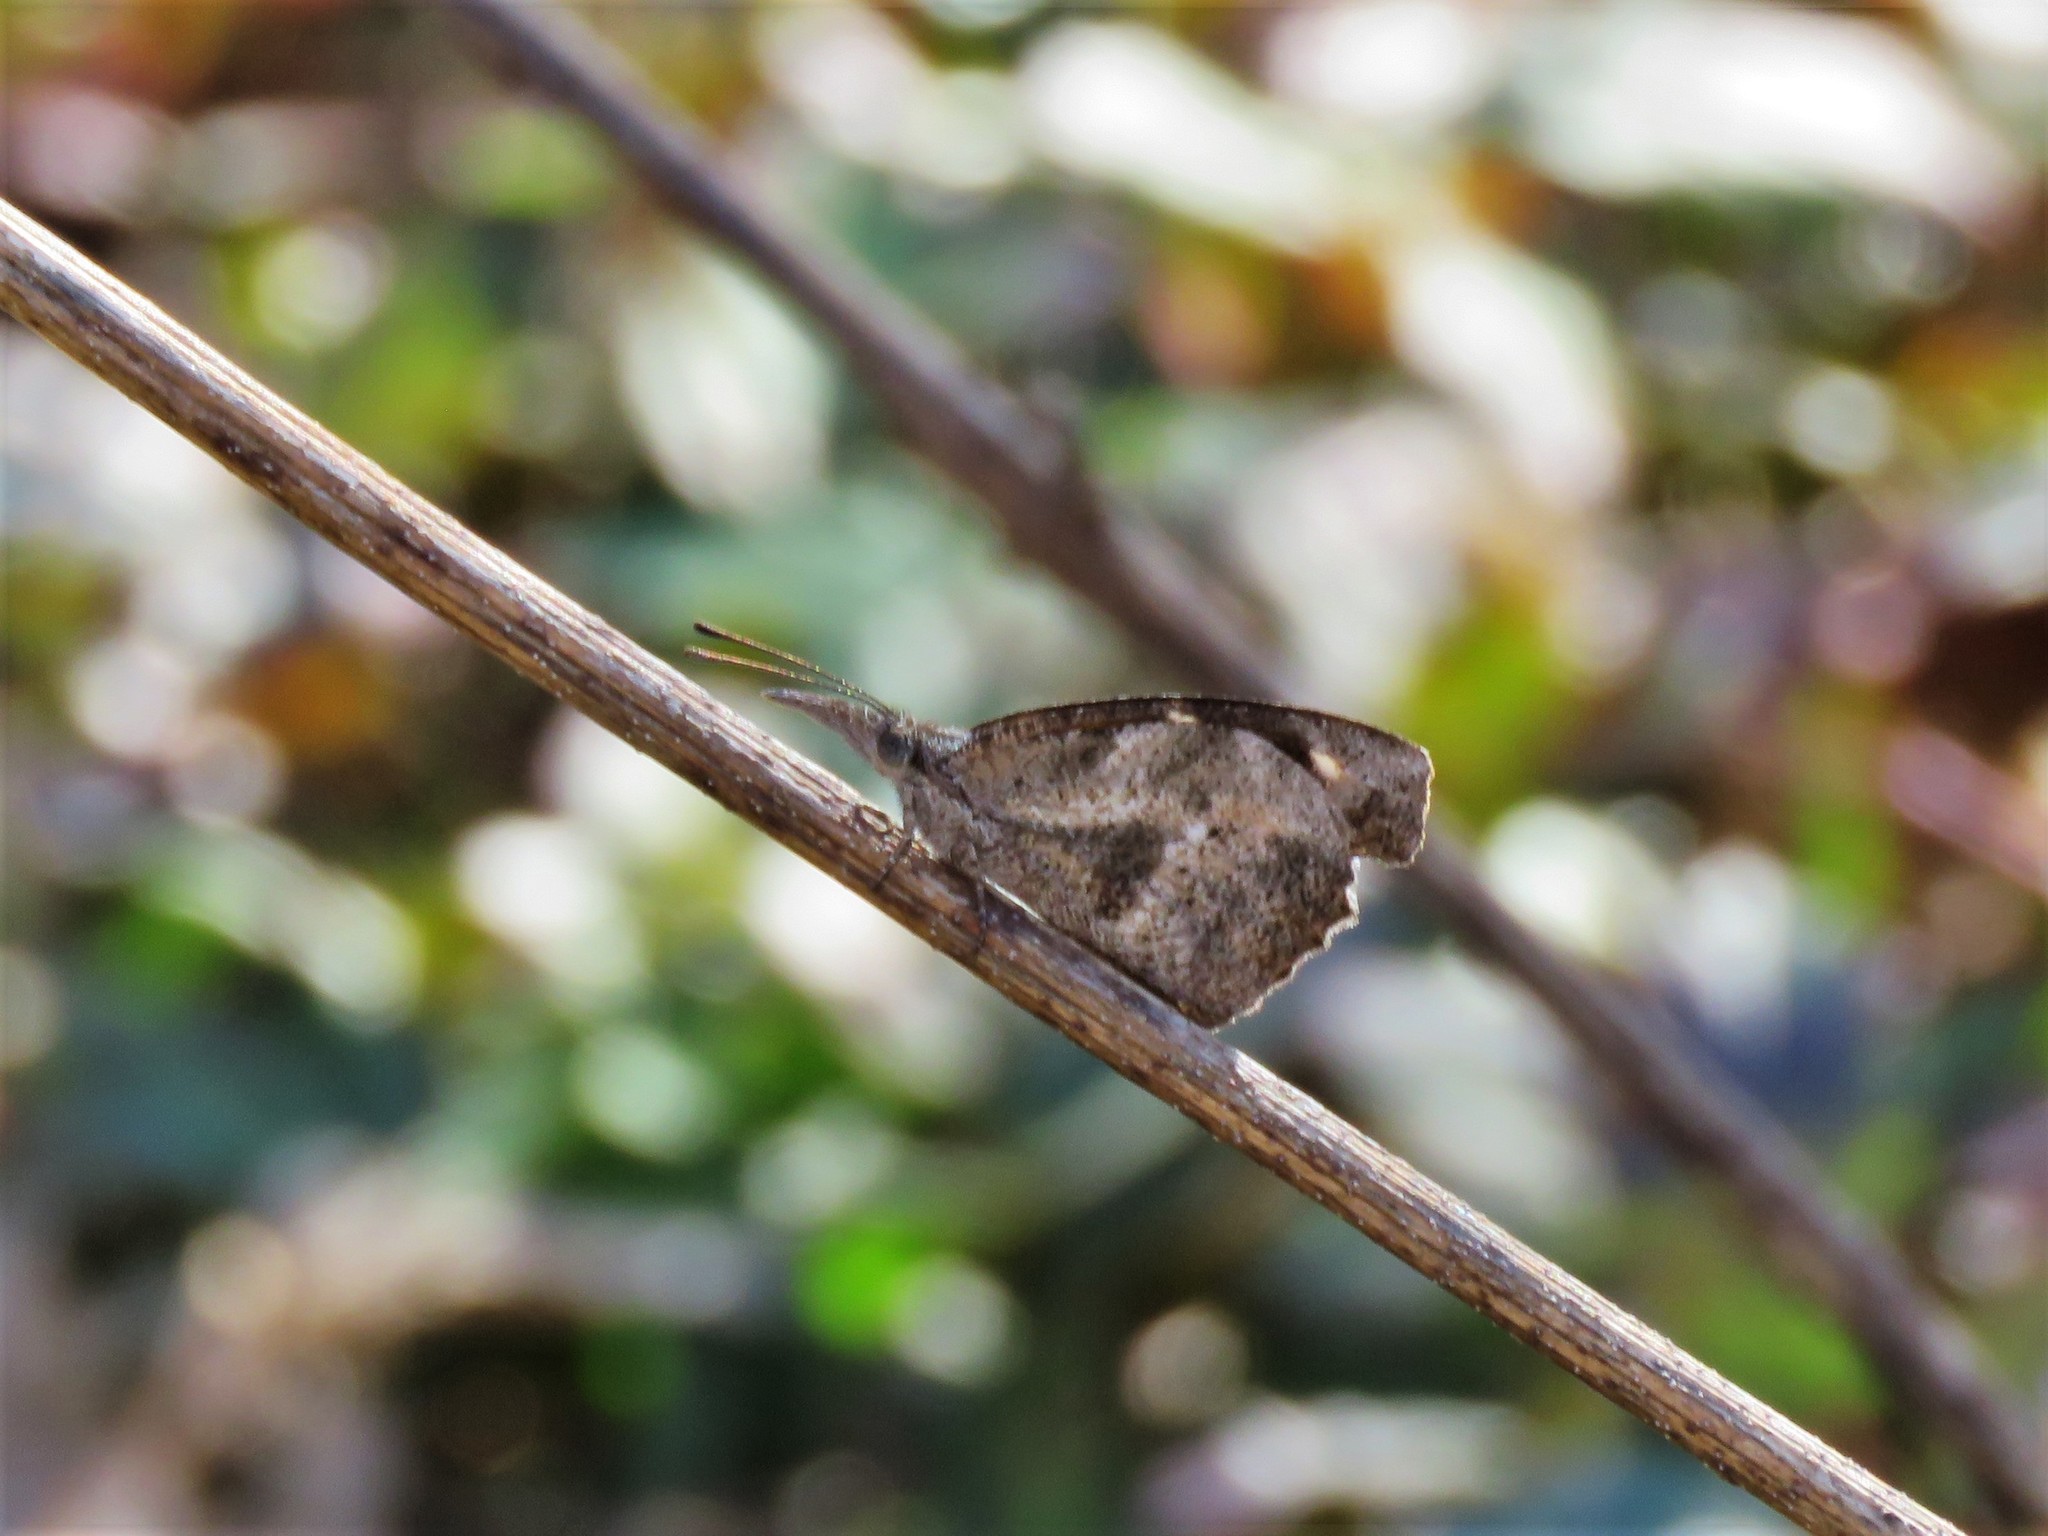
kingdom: Animalia
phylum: Arthropoda
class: Insecta
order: Lepidoptera
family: Nymphalidae
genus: Libytheana
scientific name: Libytheana carinenta
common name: American snout
